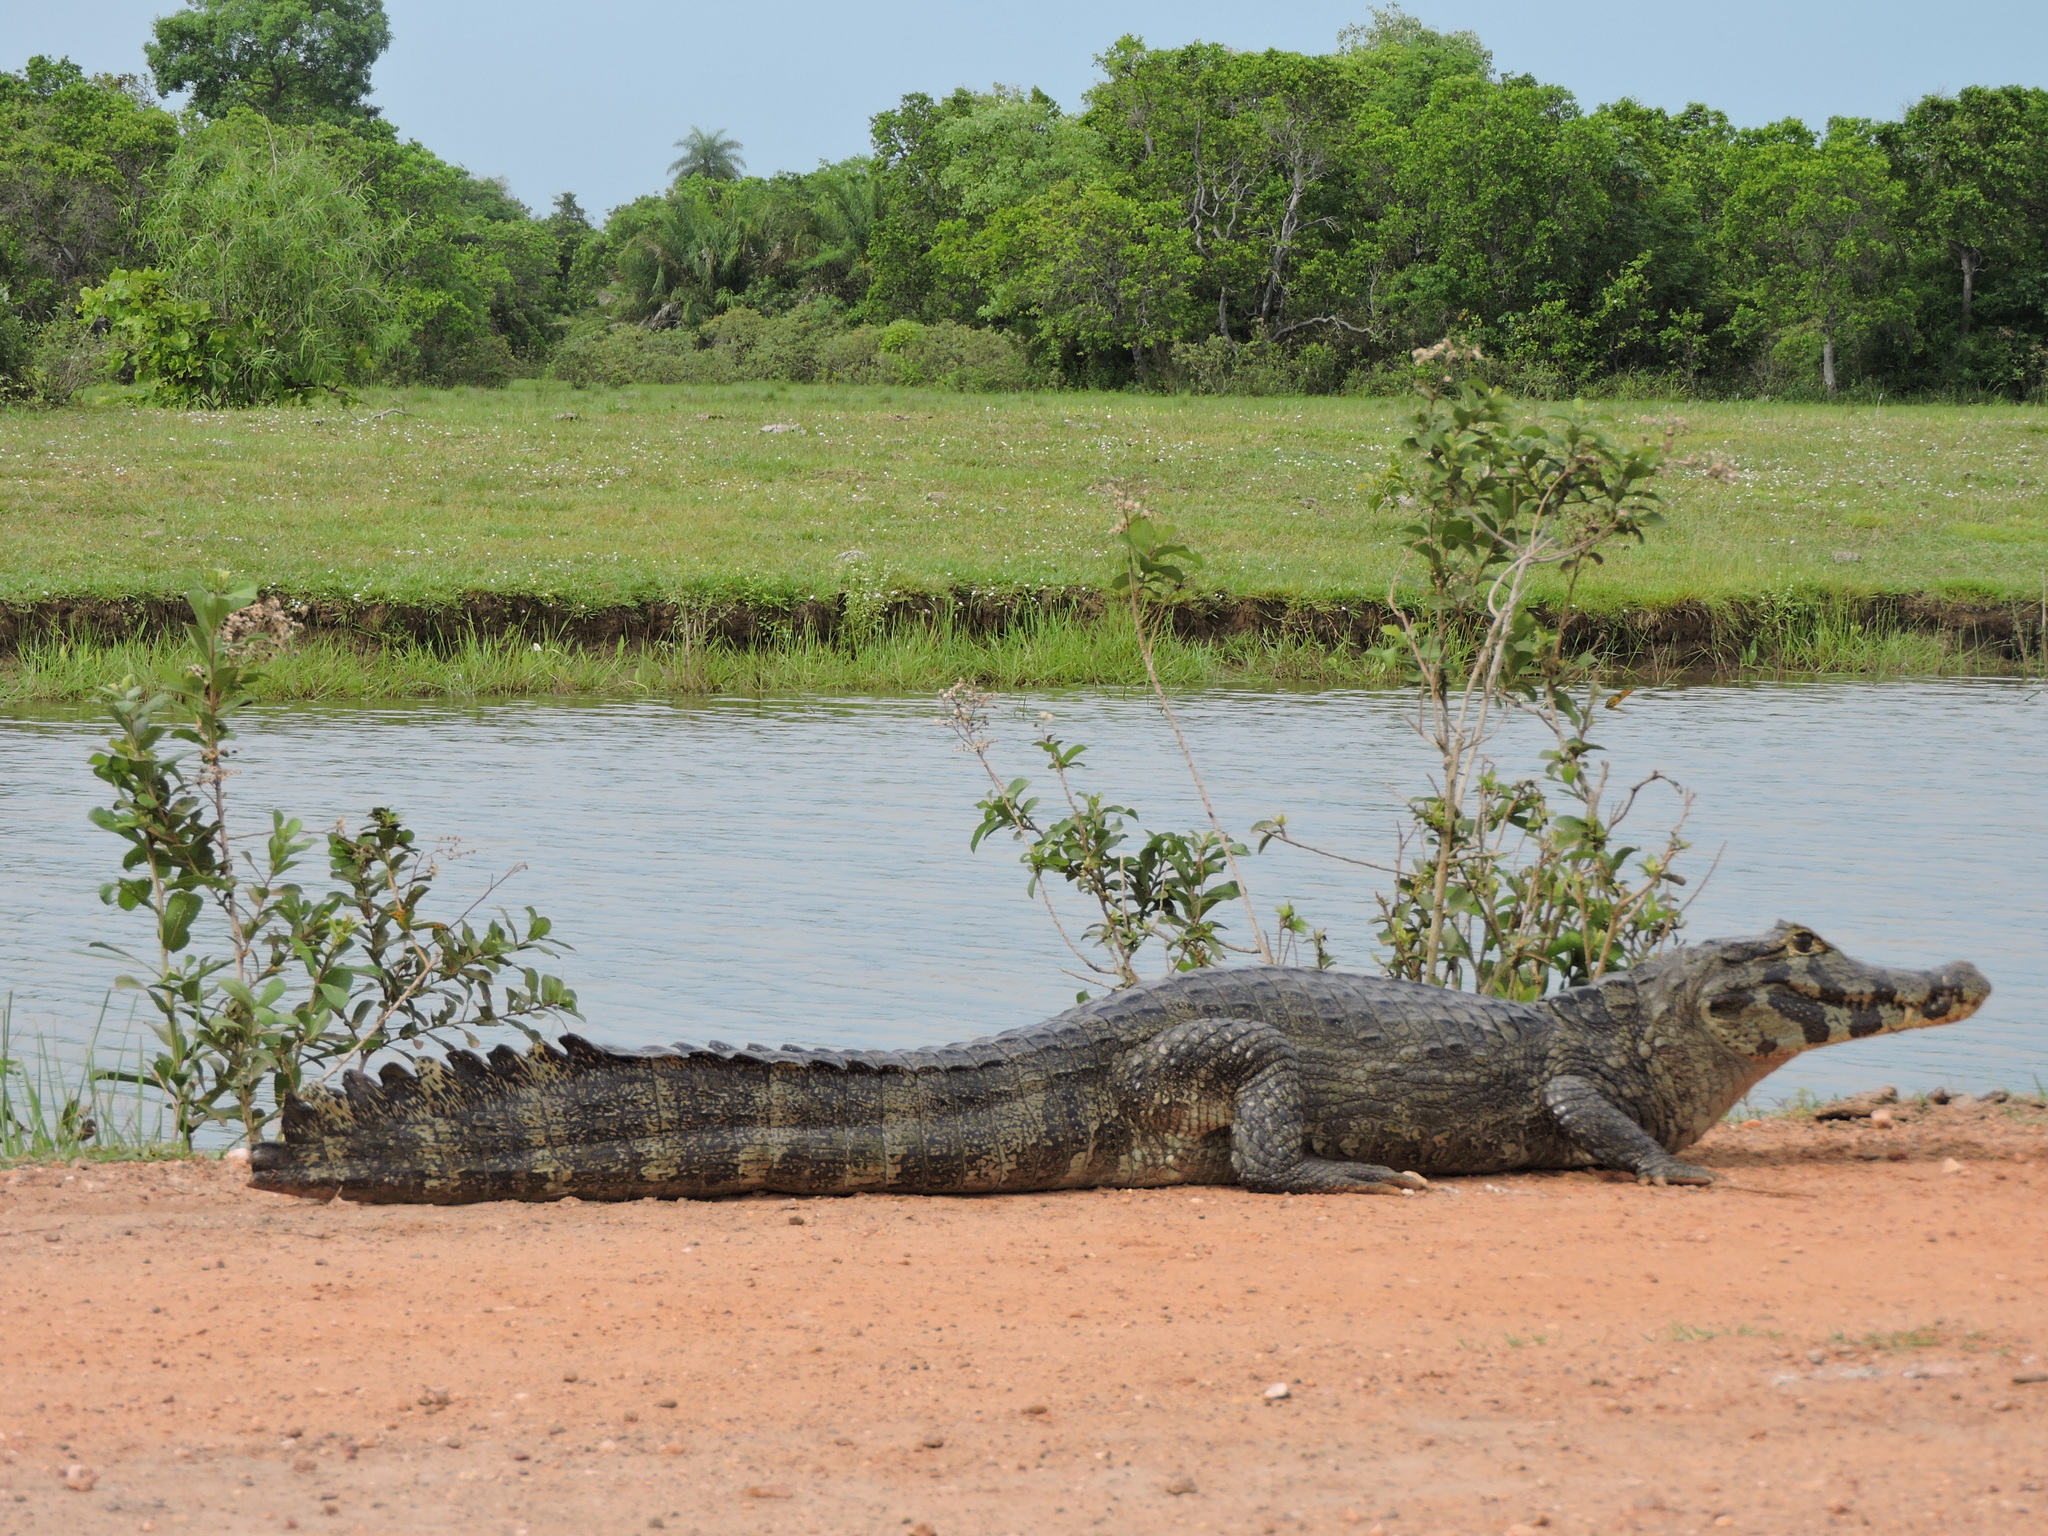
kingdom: Animalia
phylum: Chordata
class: Crocodylia
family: Alligatoridae
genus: Caiman
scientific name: Caiman yacare
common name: Yacare caiman
